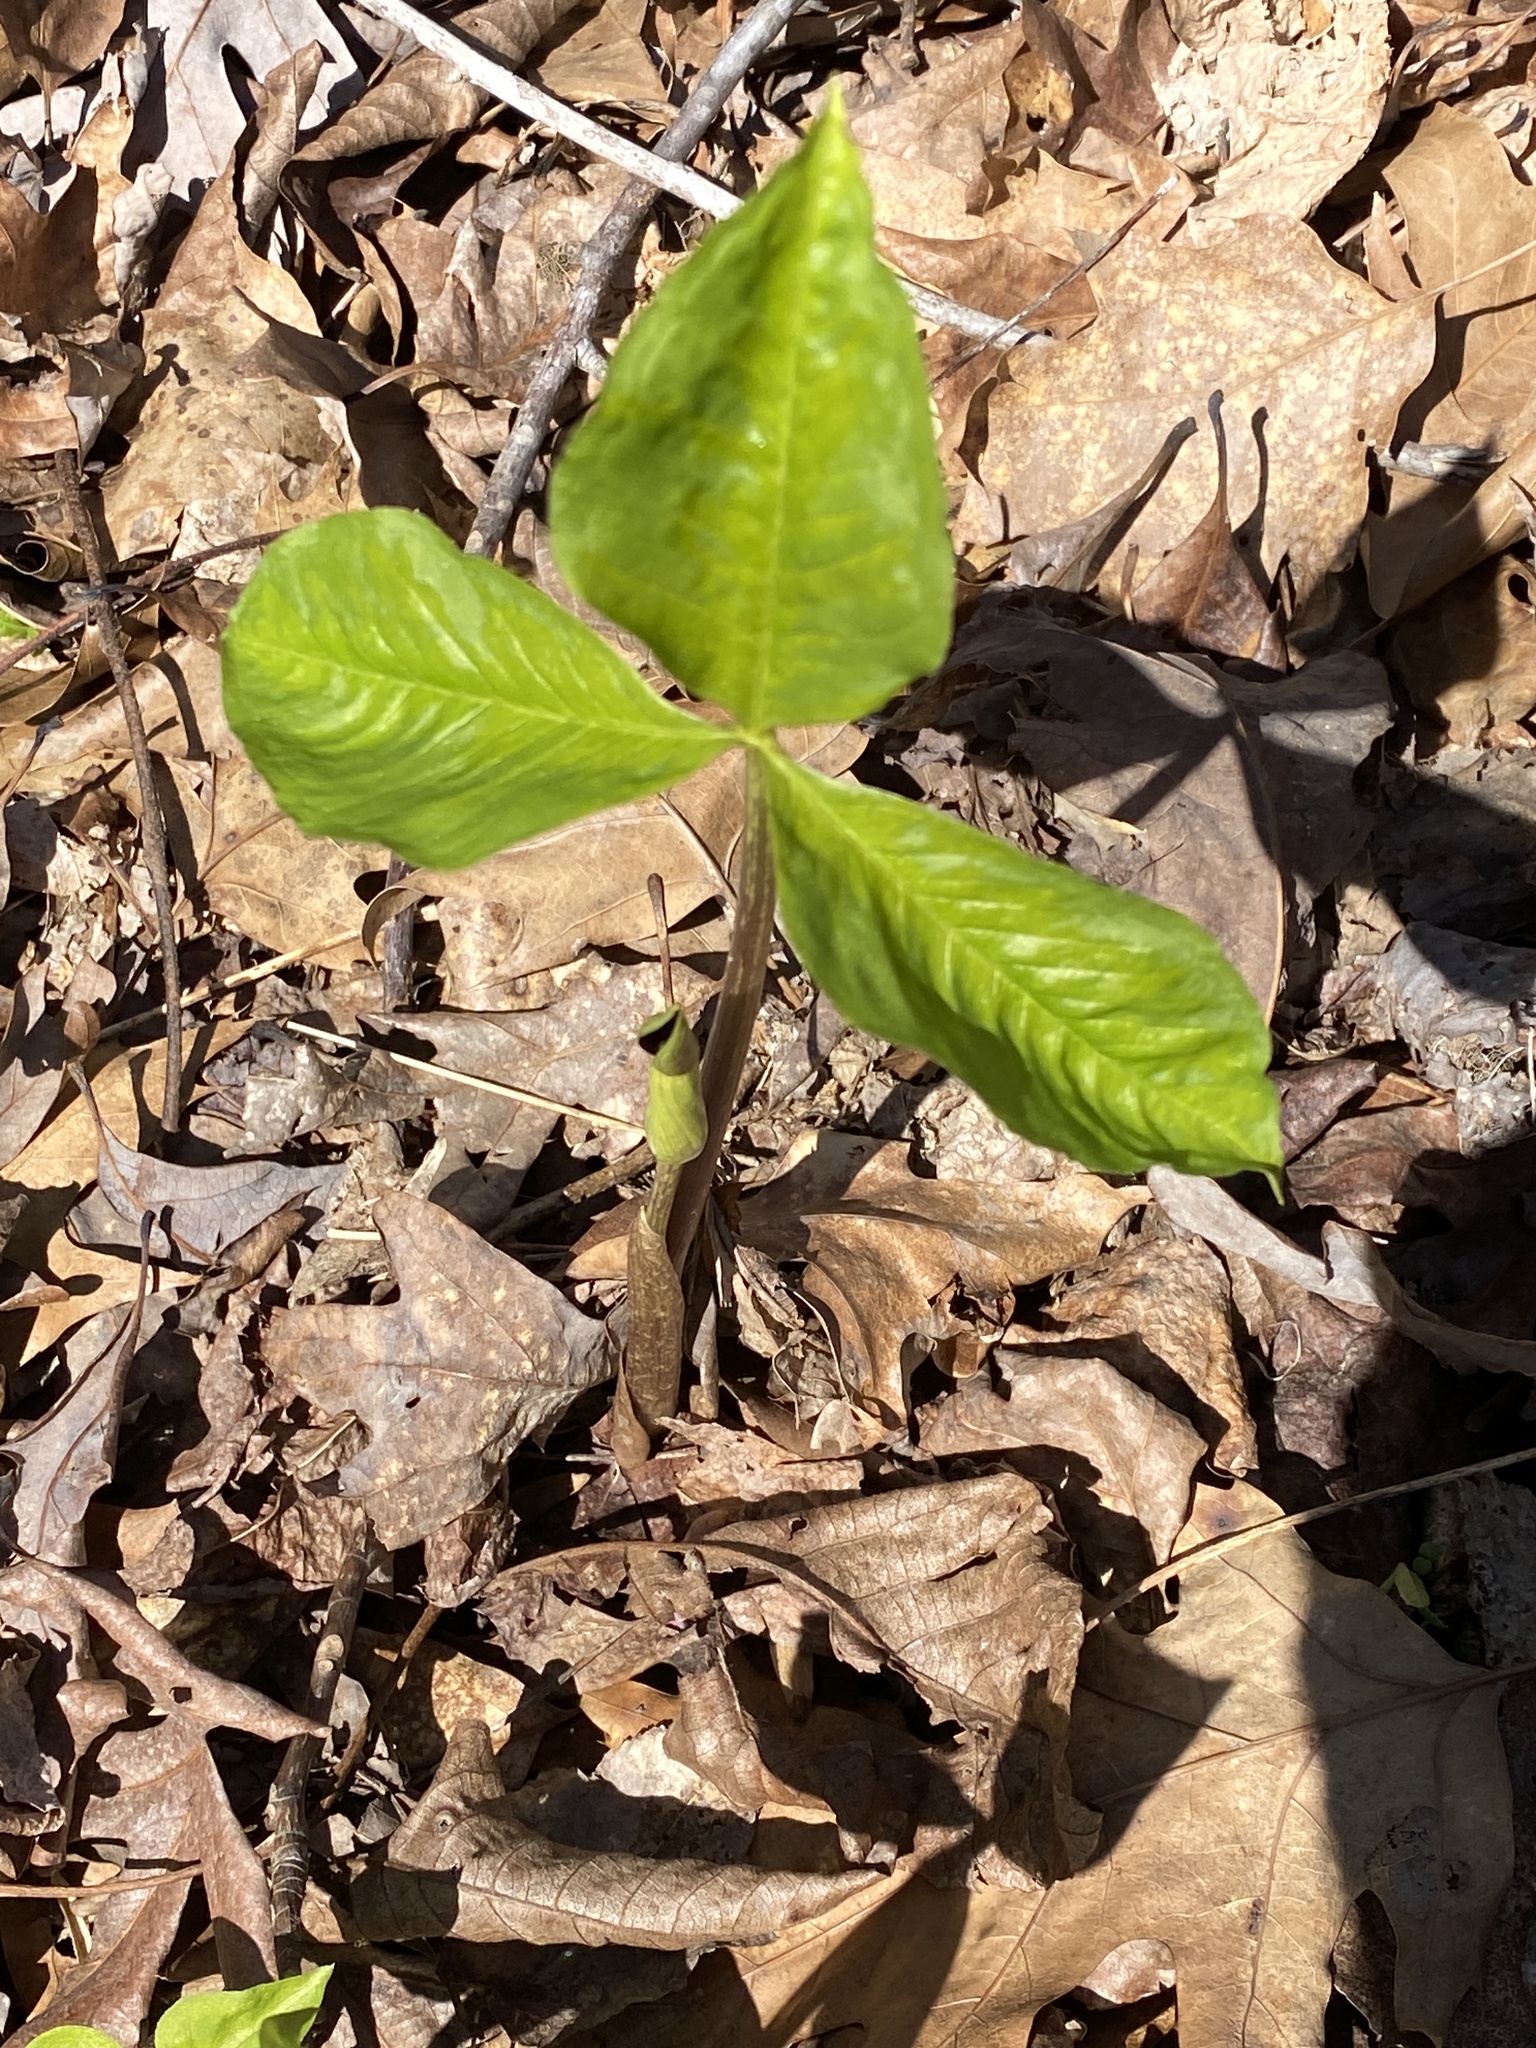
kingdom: Plantae
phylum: Tracheophyta
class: Liliopsida
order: Alismatales
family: Araceae
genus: Arisaema
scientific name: Arisaema triphyllum
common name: Jack-in-the-pulpit
